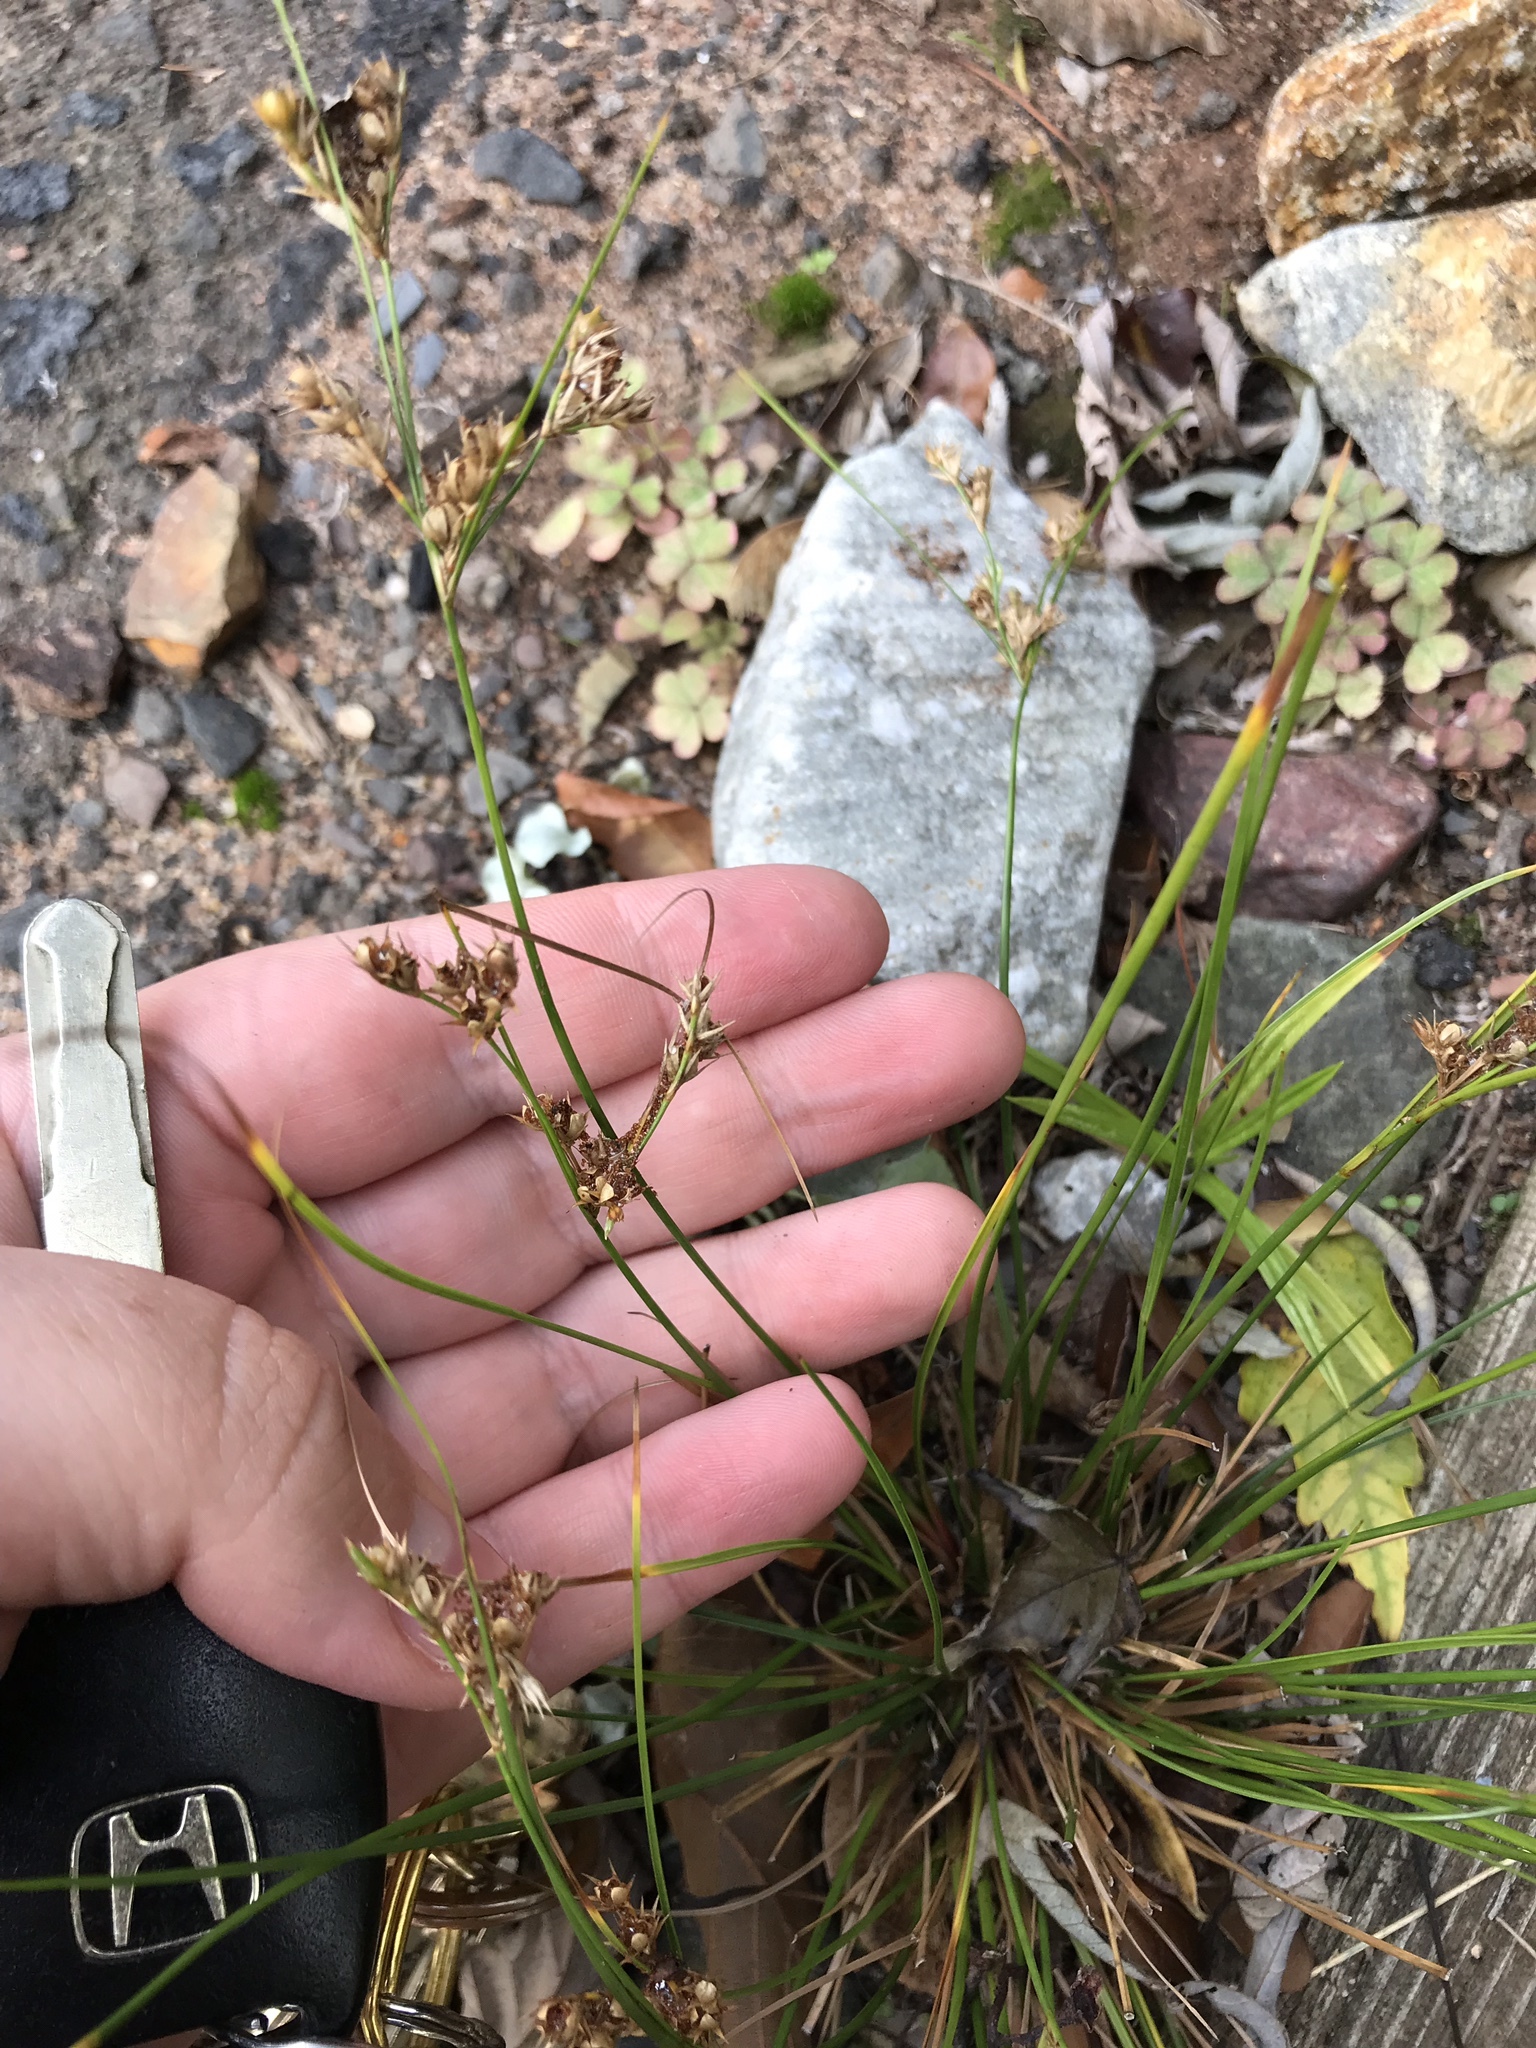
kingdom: Plantae
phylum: Tracheophyta
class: Liliopsida
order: Poales
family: Juncaceae
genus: Juncus
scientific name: Juncus tenuis
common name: Slender rush
